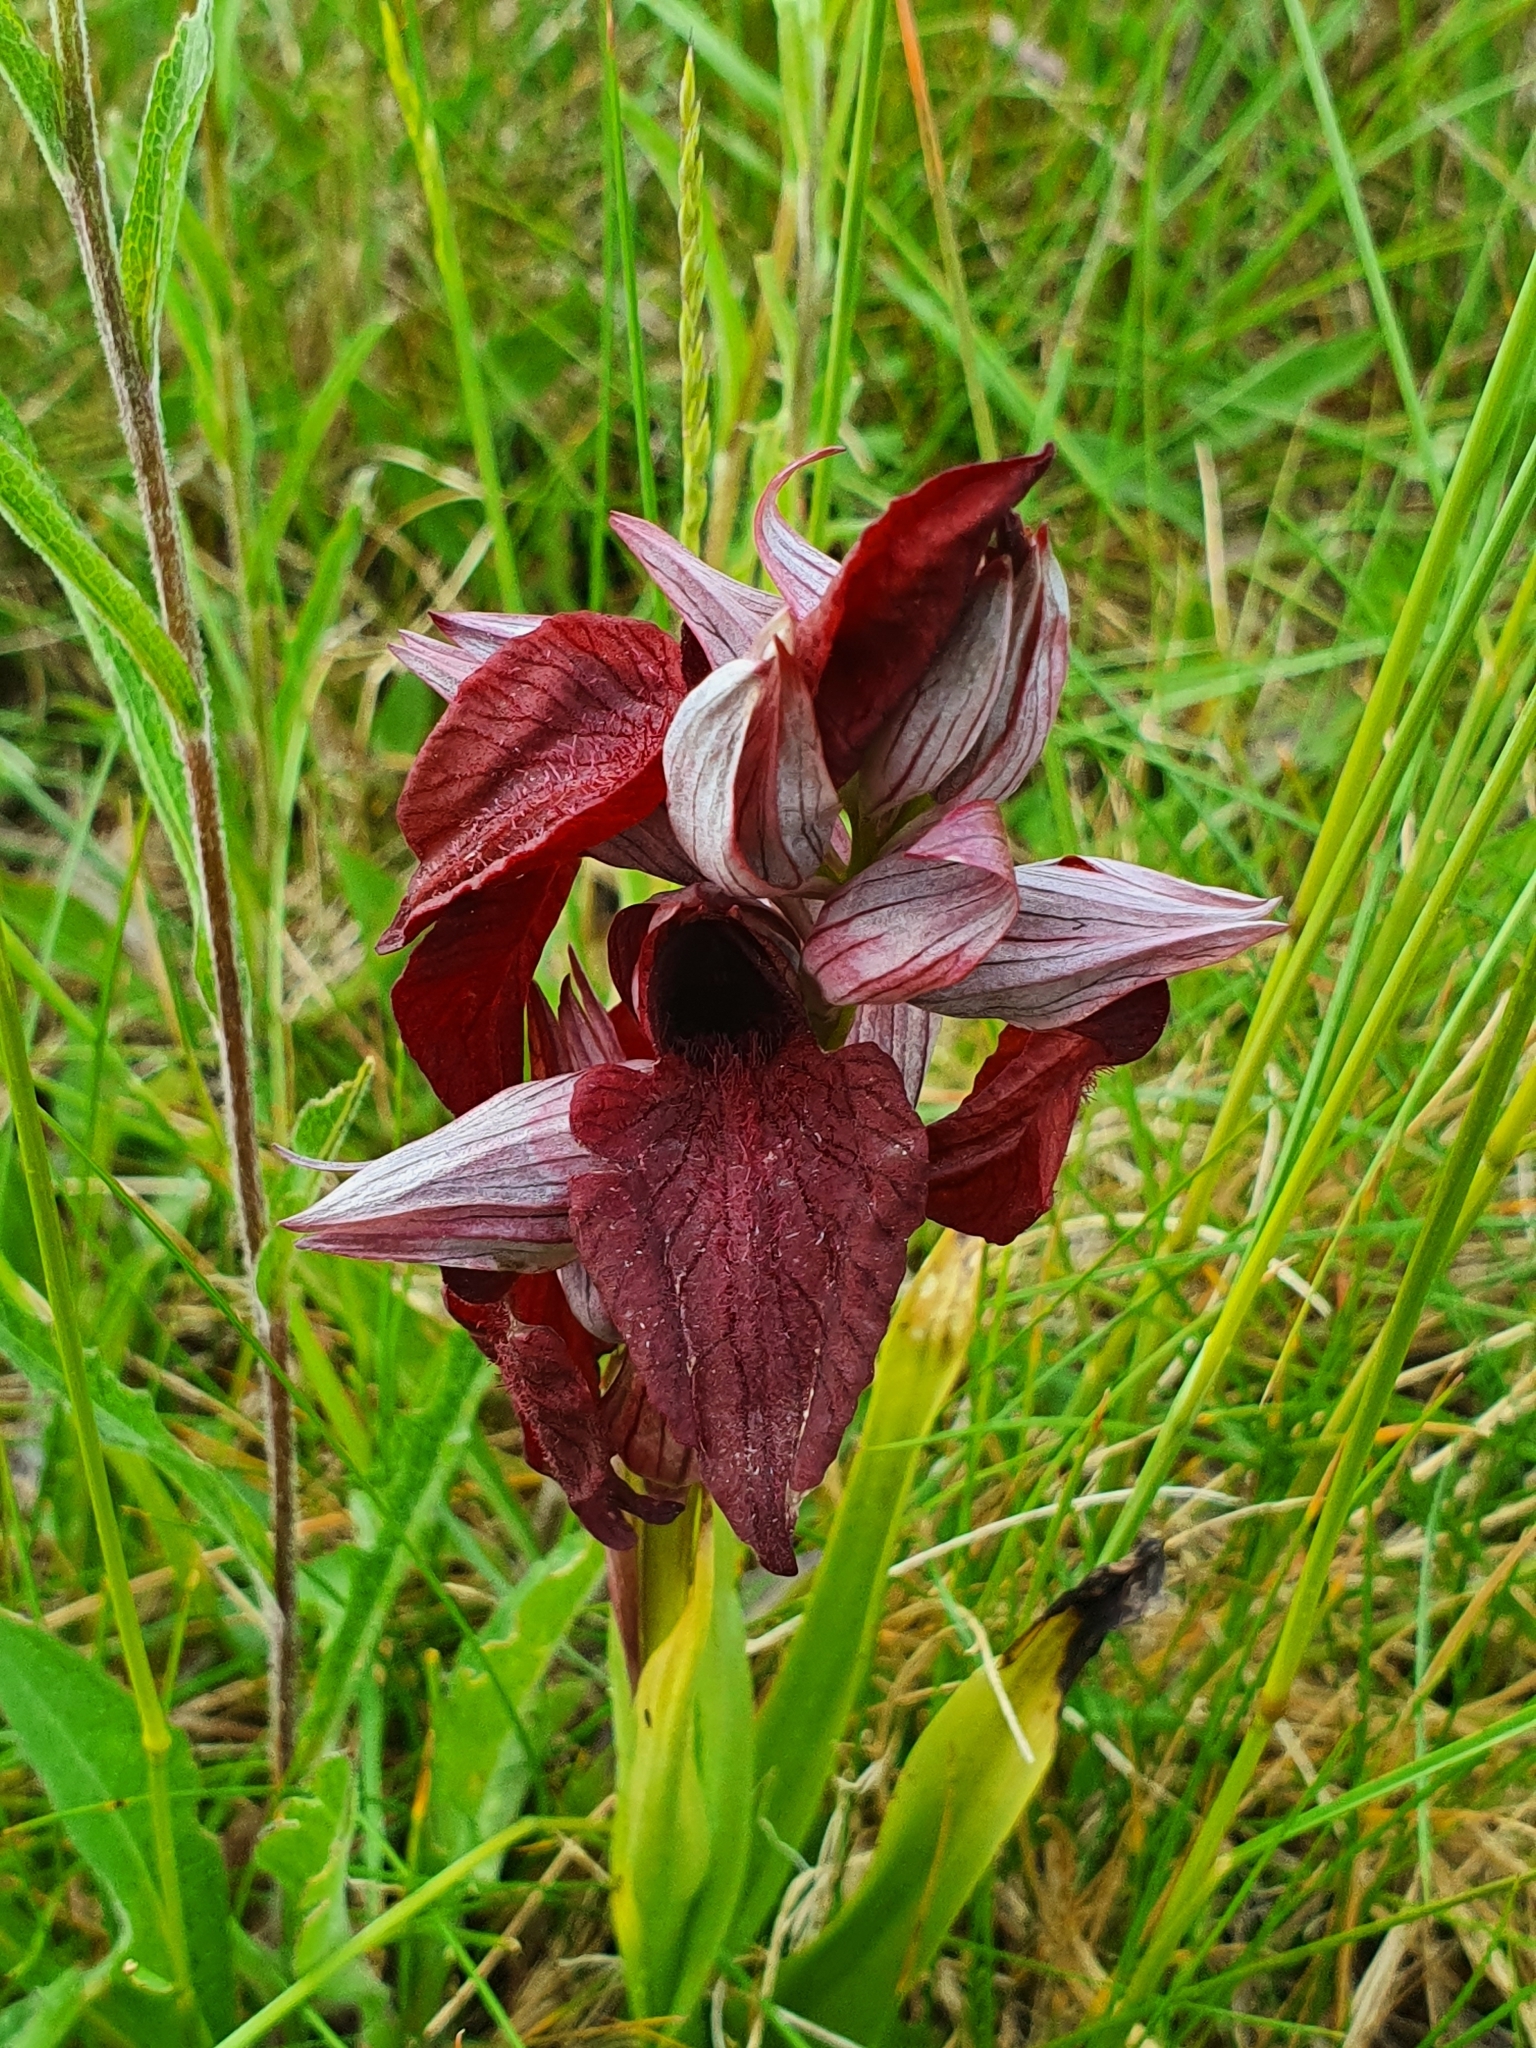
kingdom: Plantae
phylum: Tracheophyta
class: Liliopsida
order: Asparagales
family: Orchidaceae
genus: Serapias
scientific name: Serapias cordigera
